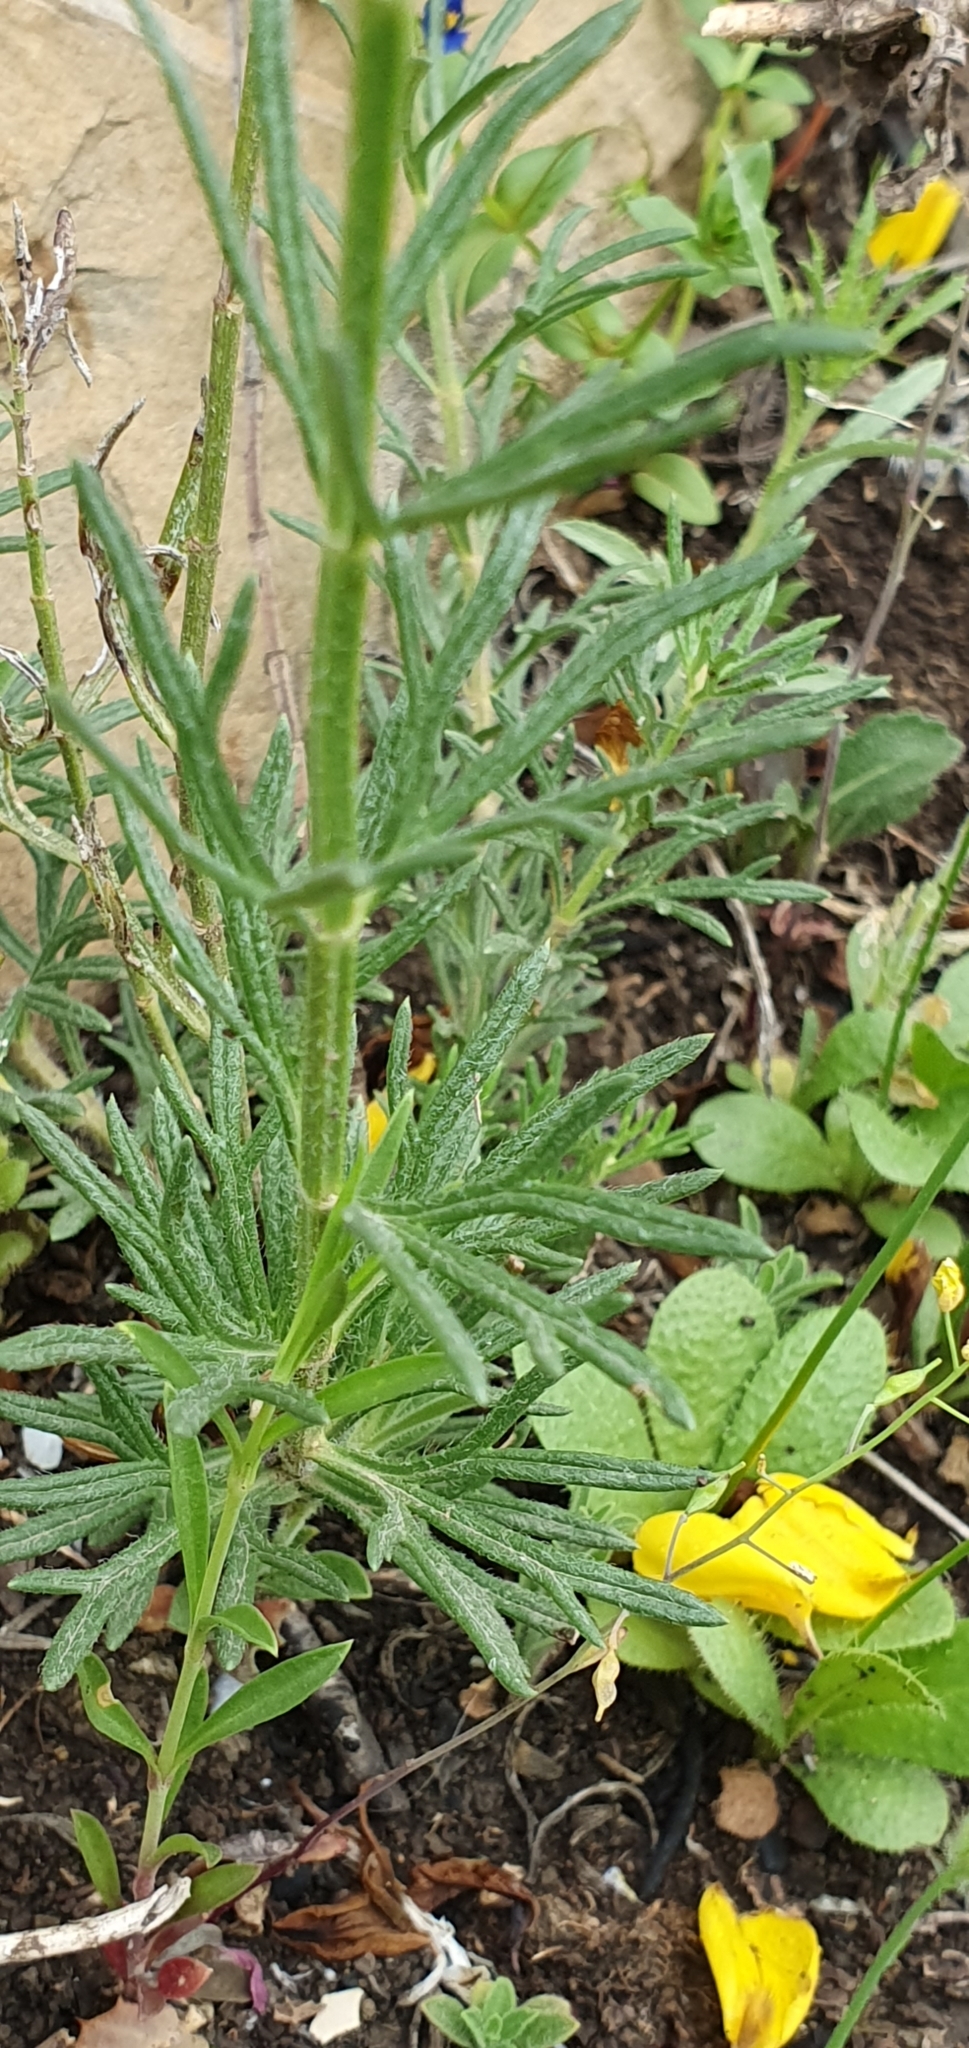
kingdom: Plantae
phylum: Tracheophyta
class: Magnoliopsida
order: Lamiales
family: Lamiaceae
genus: Teucrium
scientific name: Teucrium pseudochamaepitys
